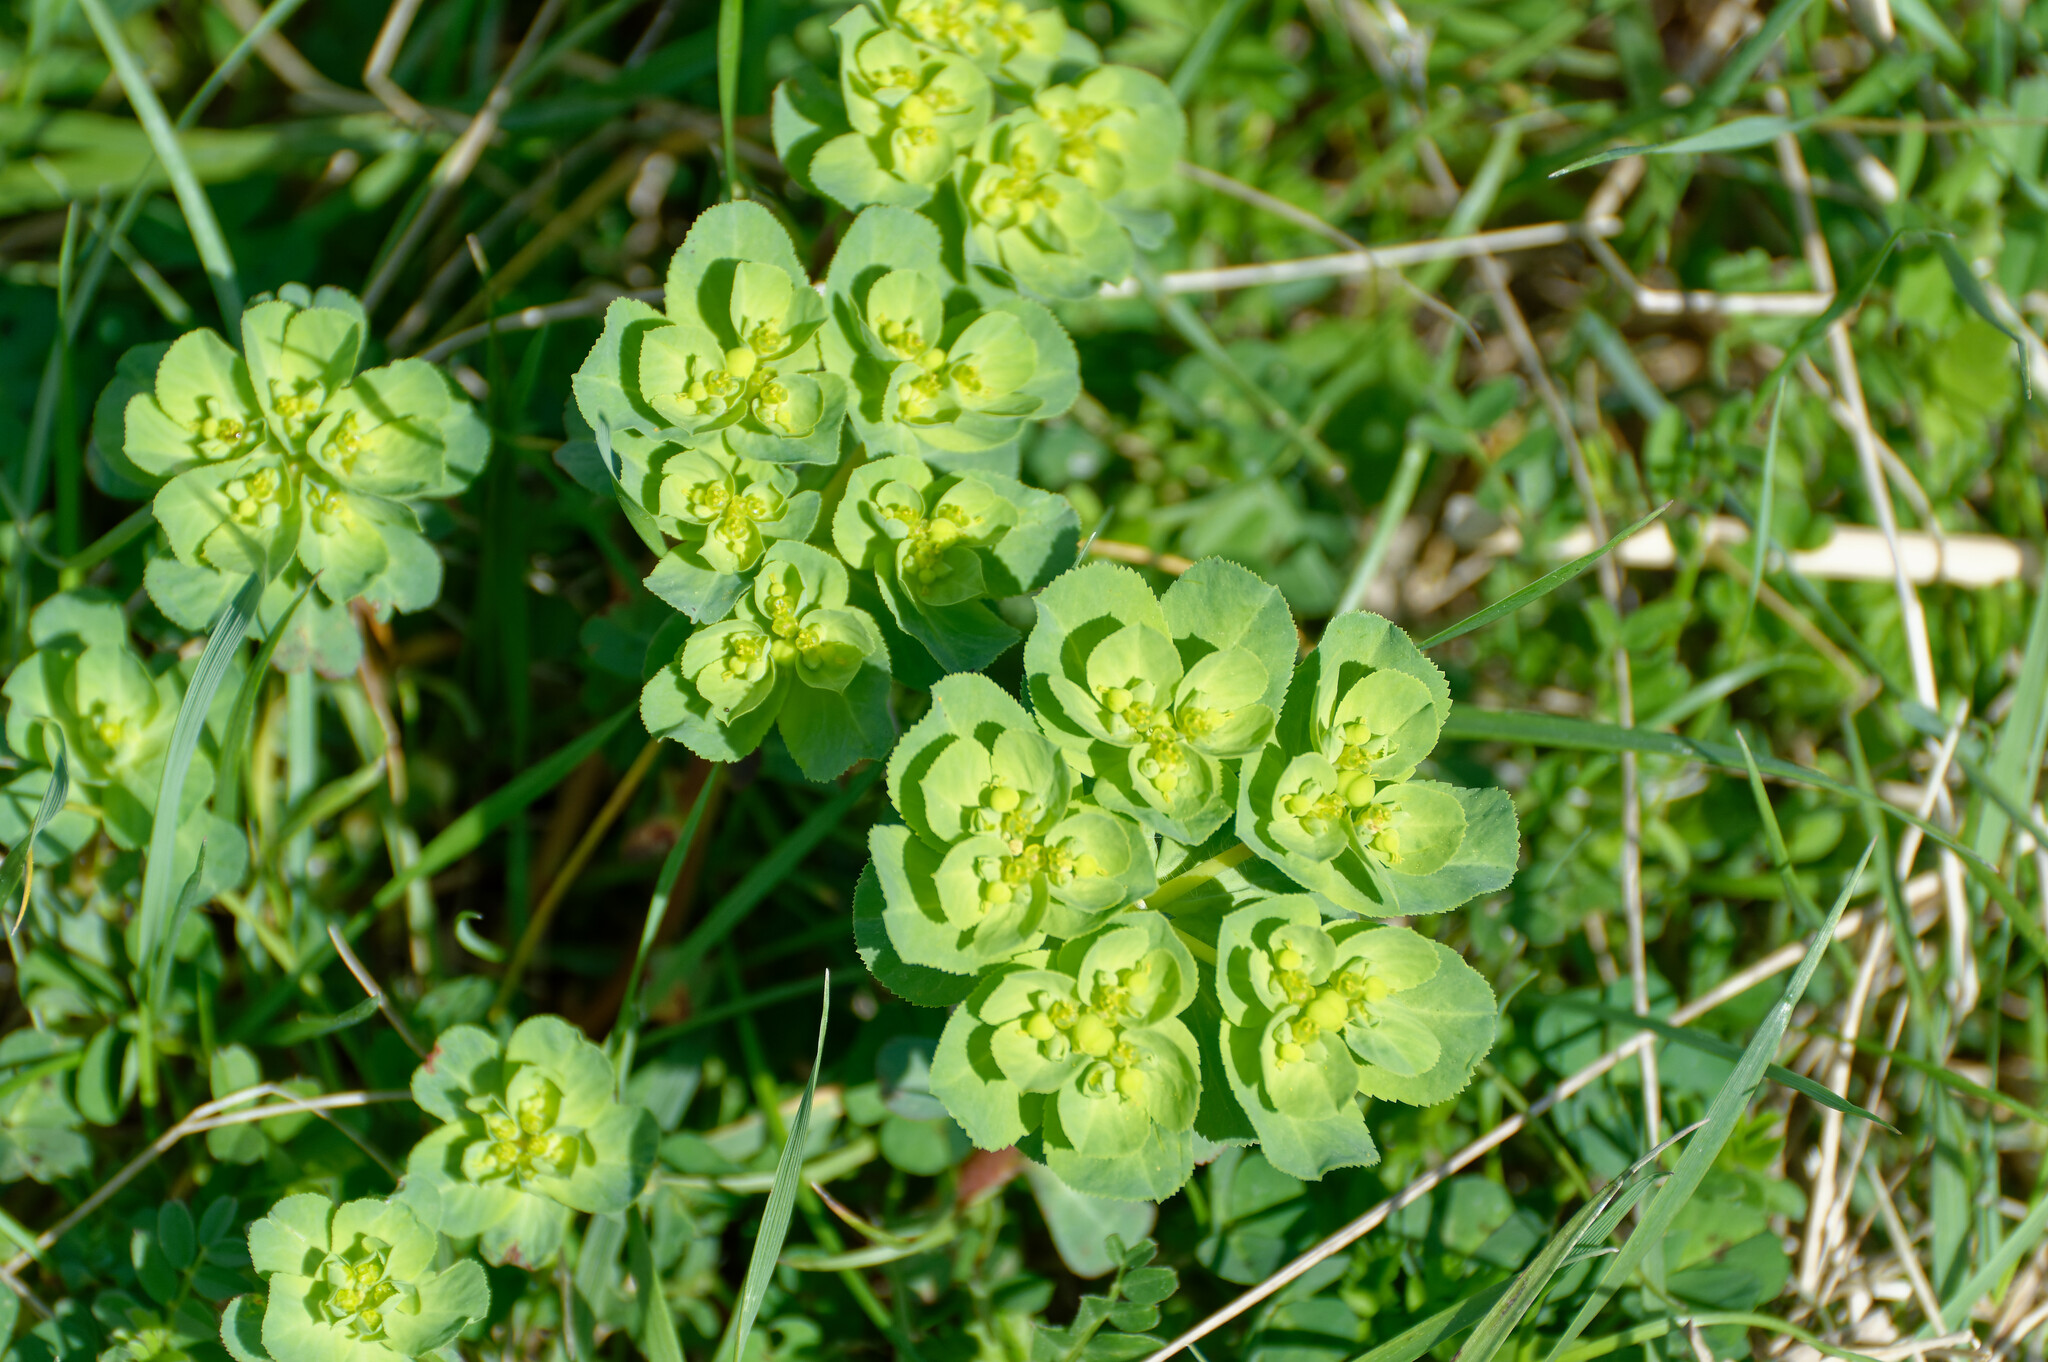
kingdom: Plantae
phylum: Tracheophyta
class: Magnoliopsida
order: Malpighiales
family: Euphorbiaceae
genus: Euphorbia
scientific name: Euphorbia helioscopia
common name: Sun spurge
